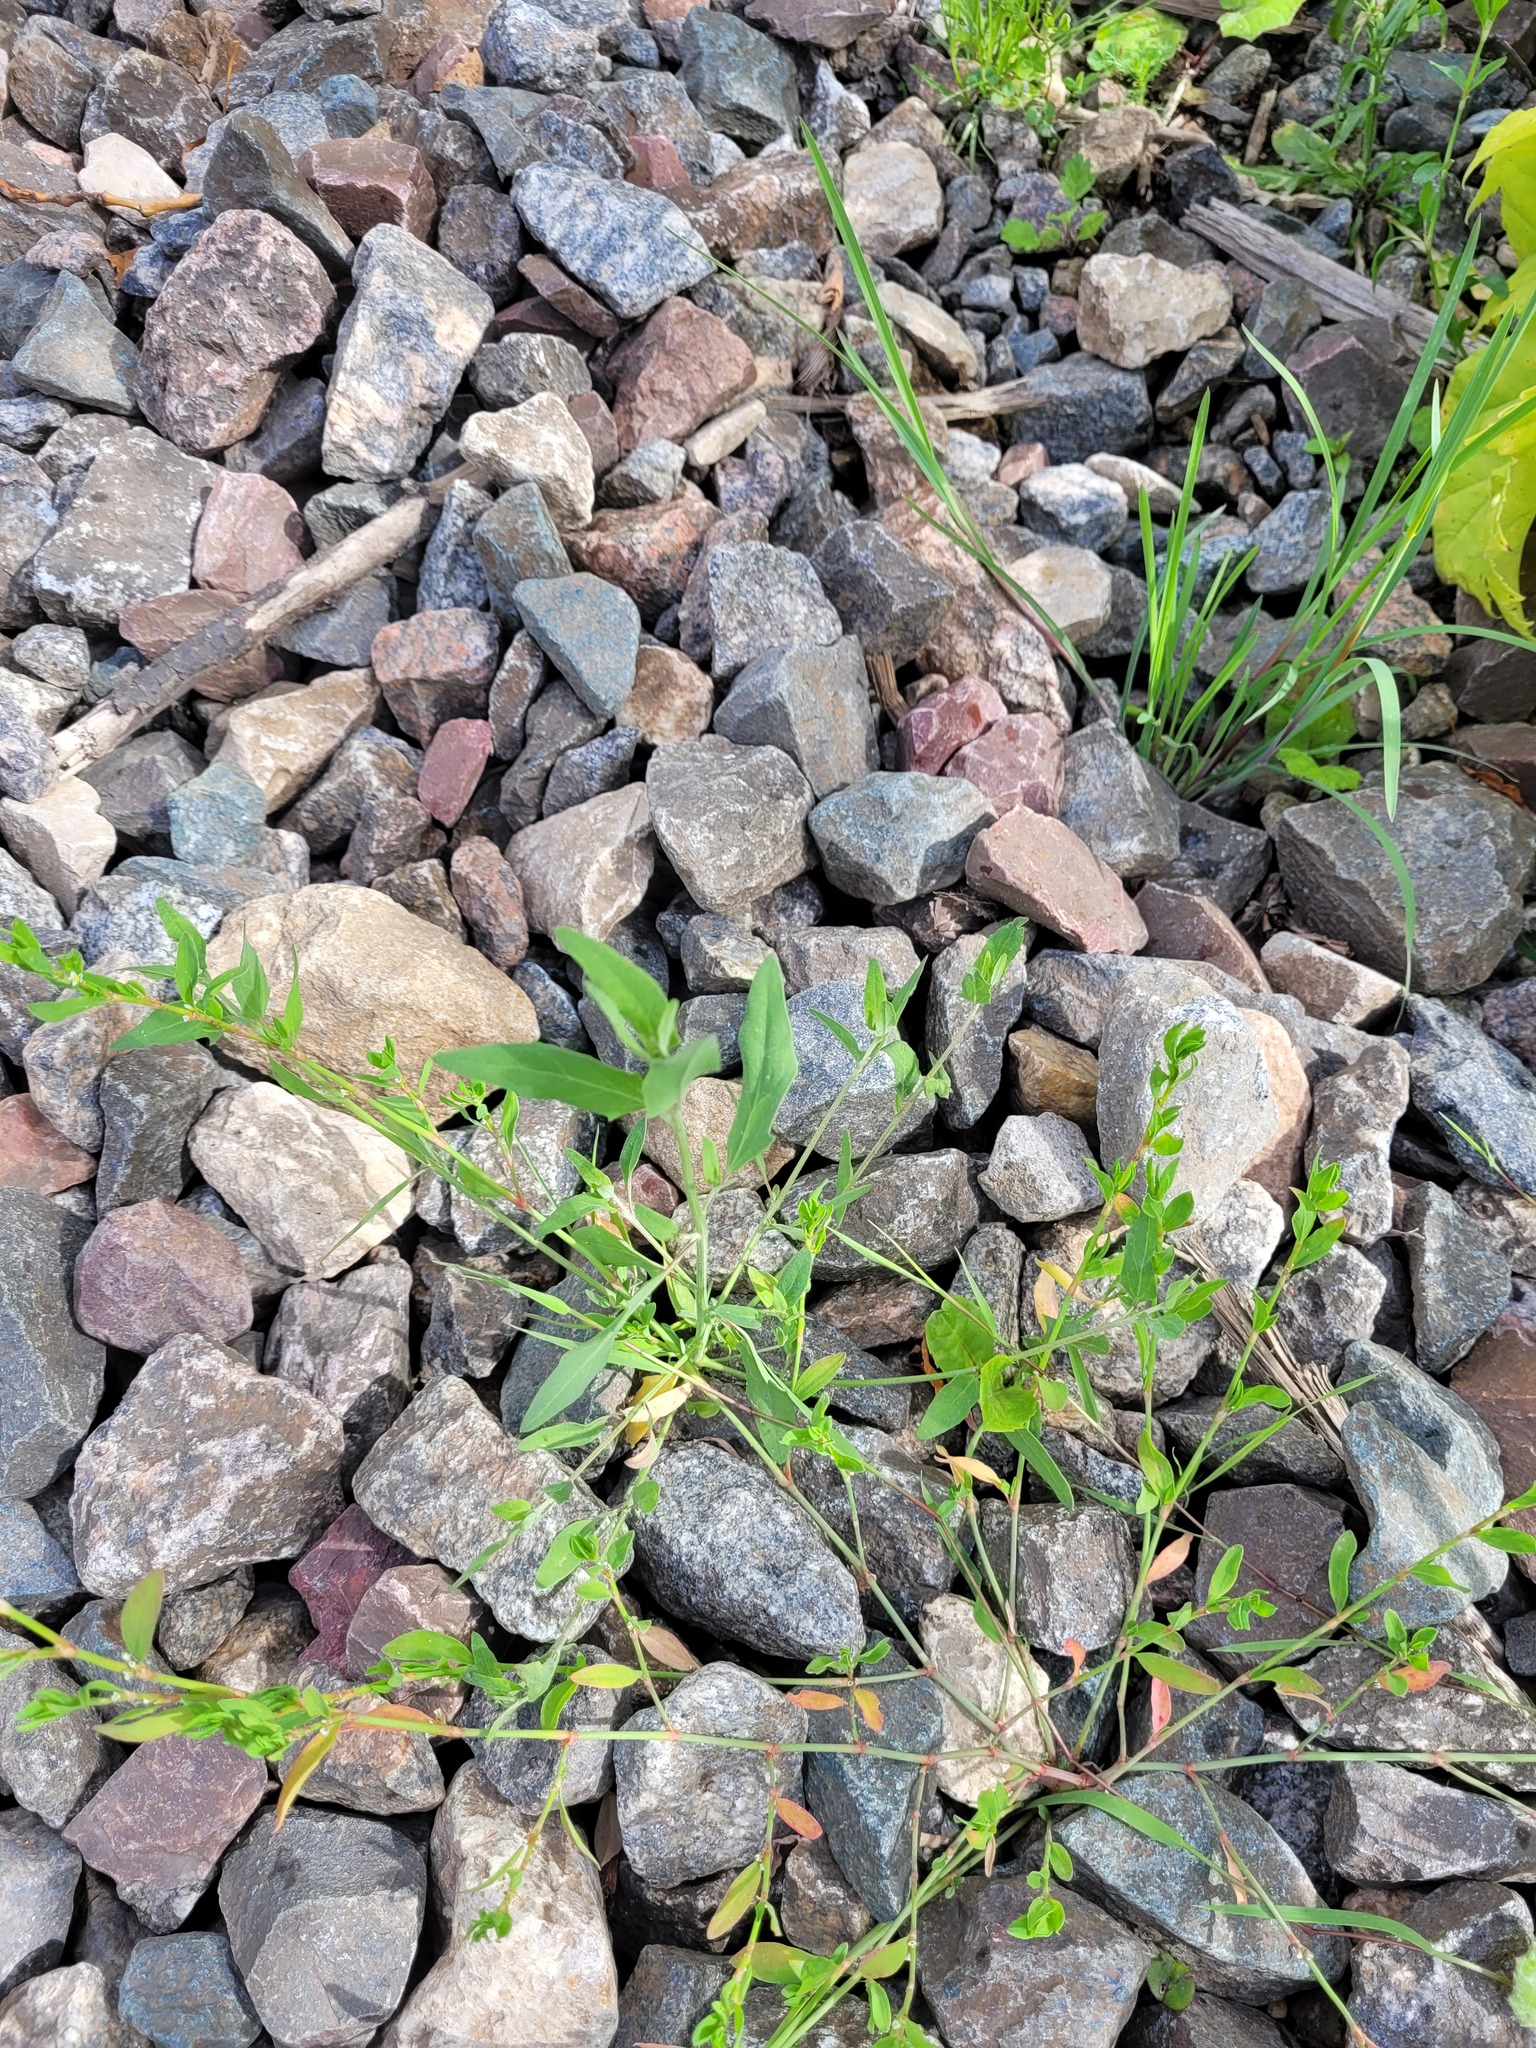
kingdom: Plantae
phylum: Tracheophyta
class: Magnoliopsida
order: Caryophyllales
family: Amaranthaceae
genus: Atriplex
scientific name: Atriplex patula
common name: Common orache
